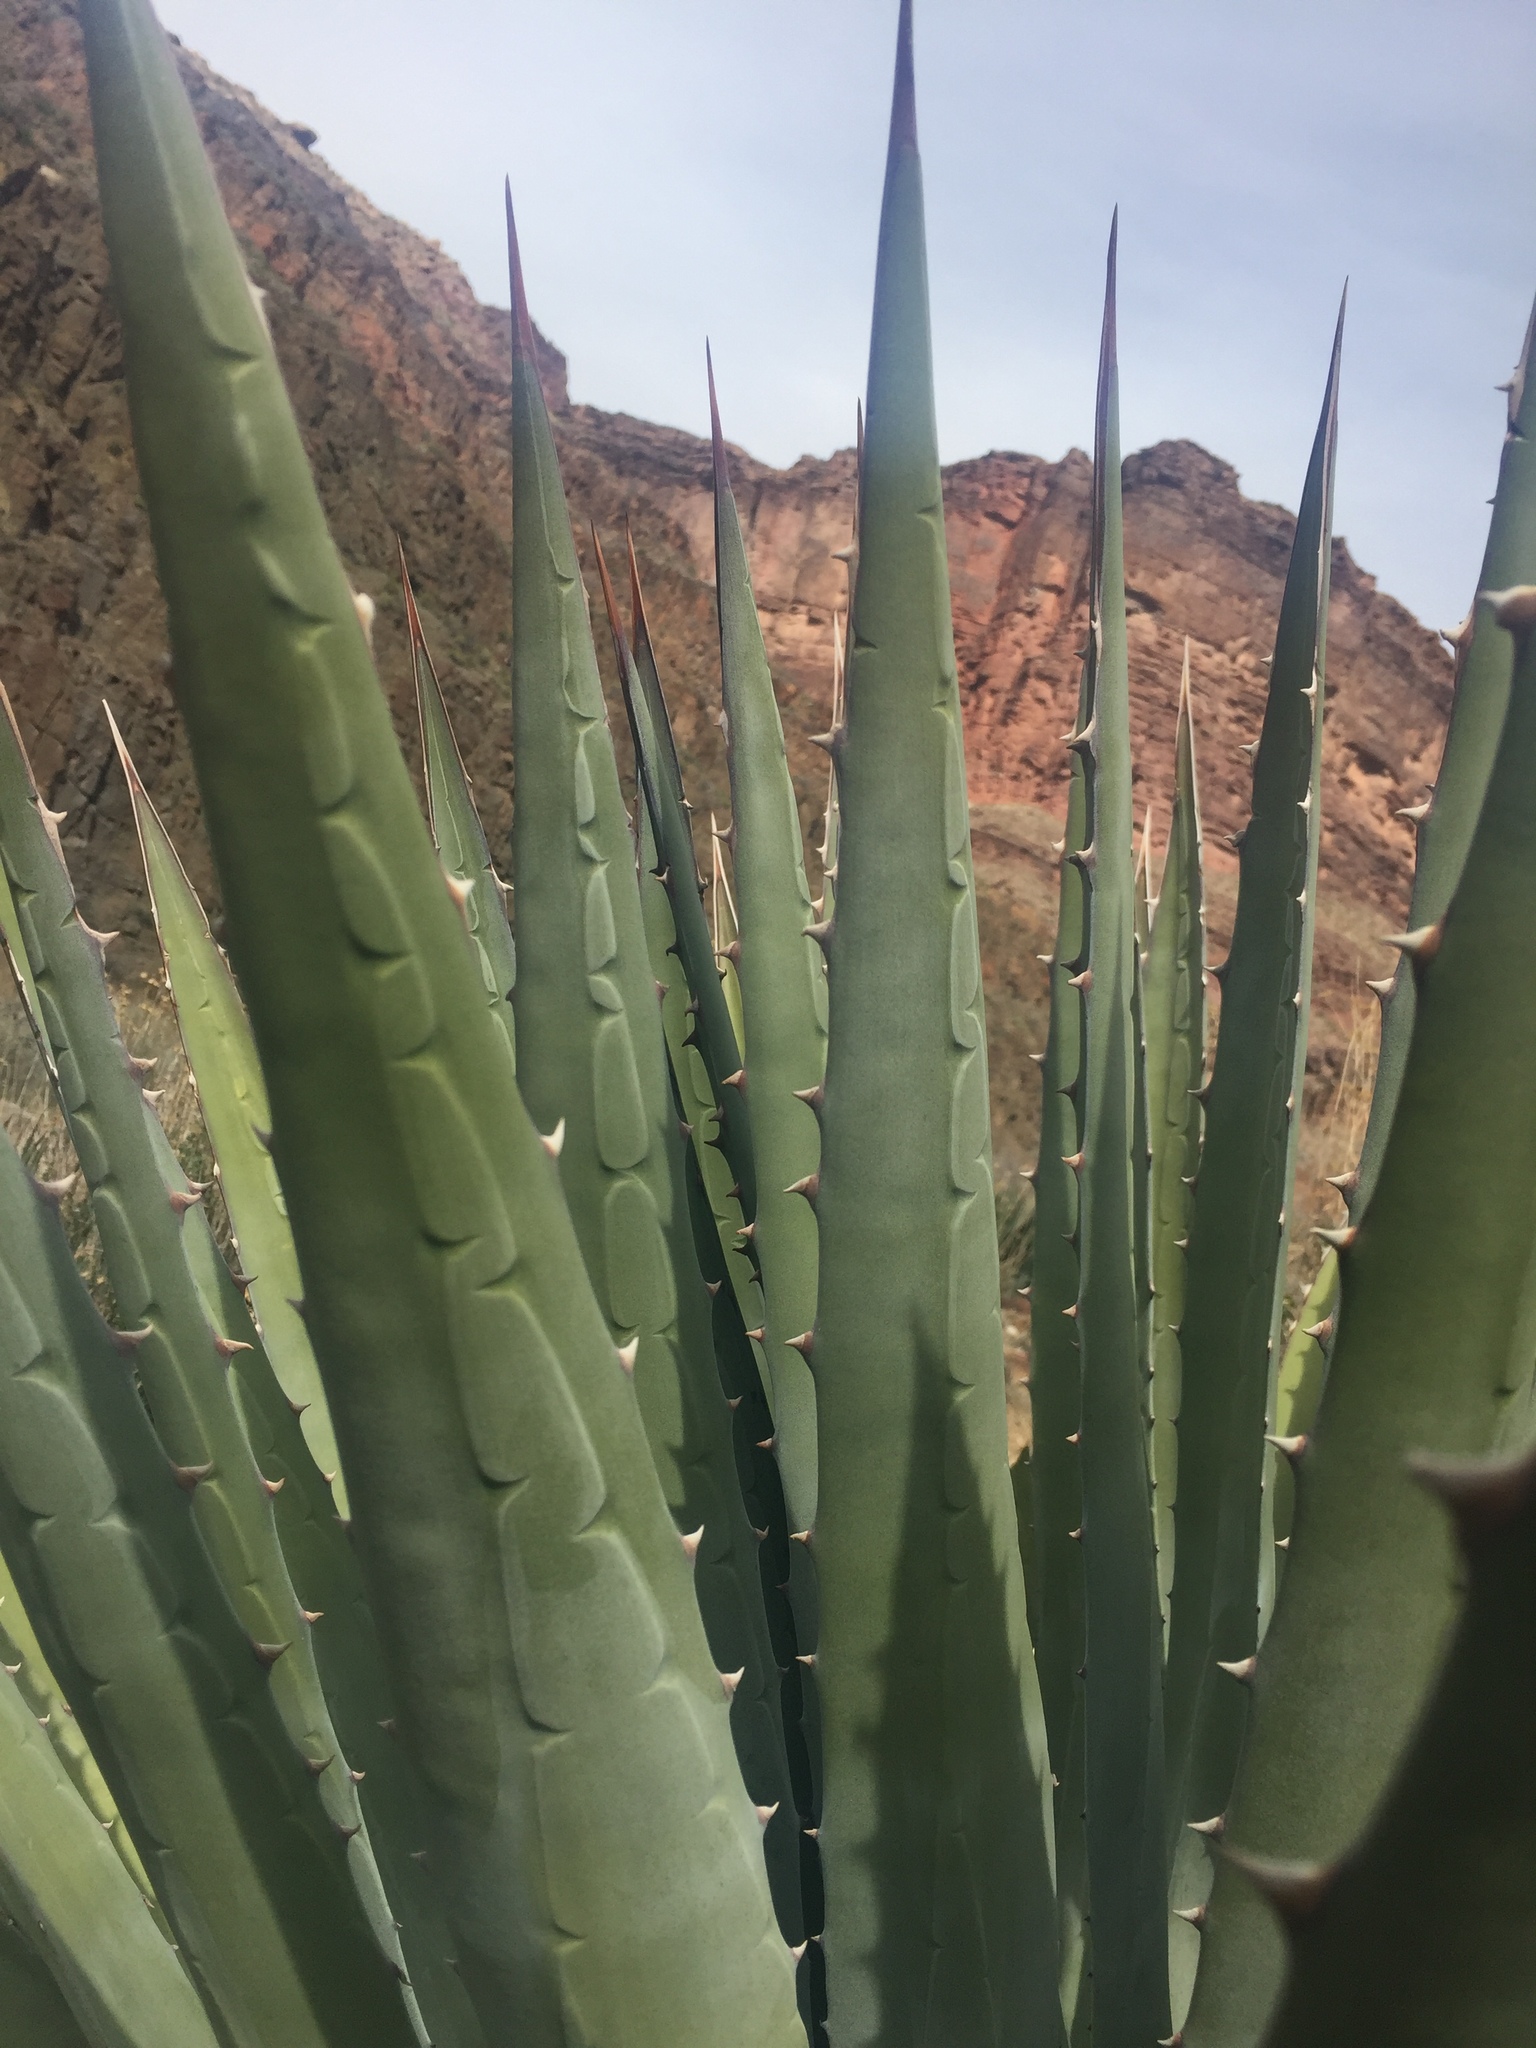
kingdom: Plantae
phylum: Tracheophyta
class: Liliopsida
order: Asparagales
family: Asparagaceae
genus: Agave
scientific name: Agave utahensis
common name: Utah agave
